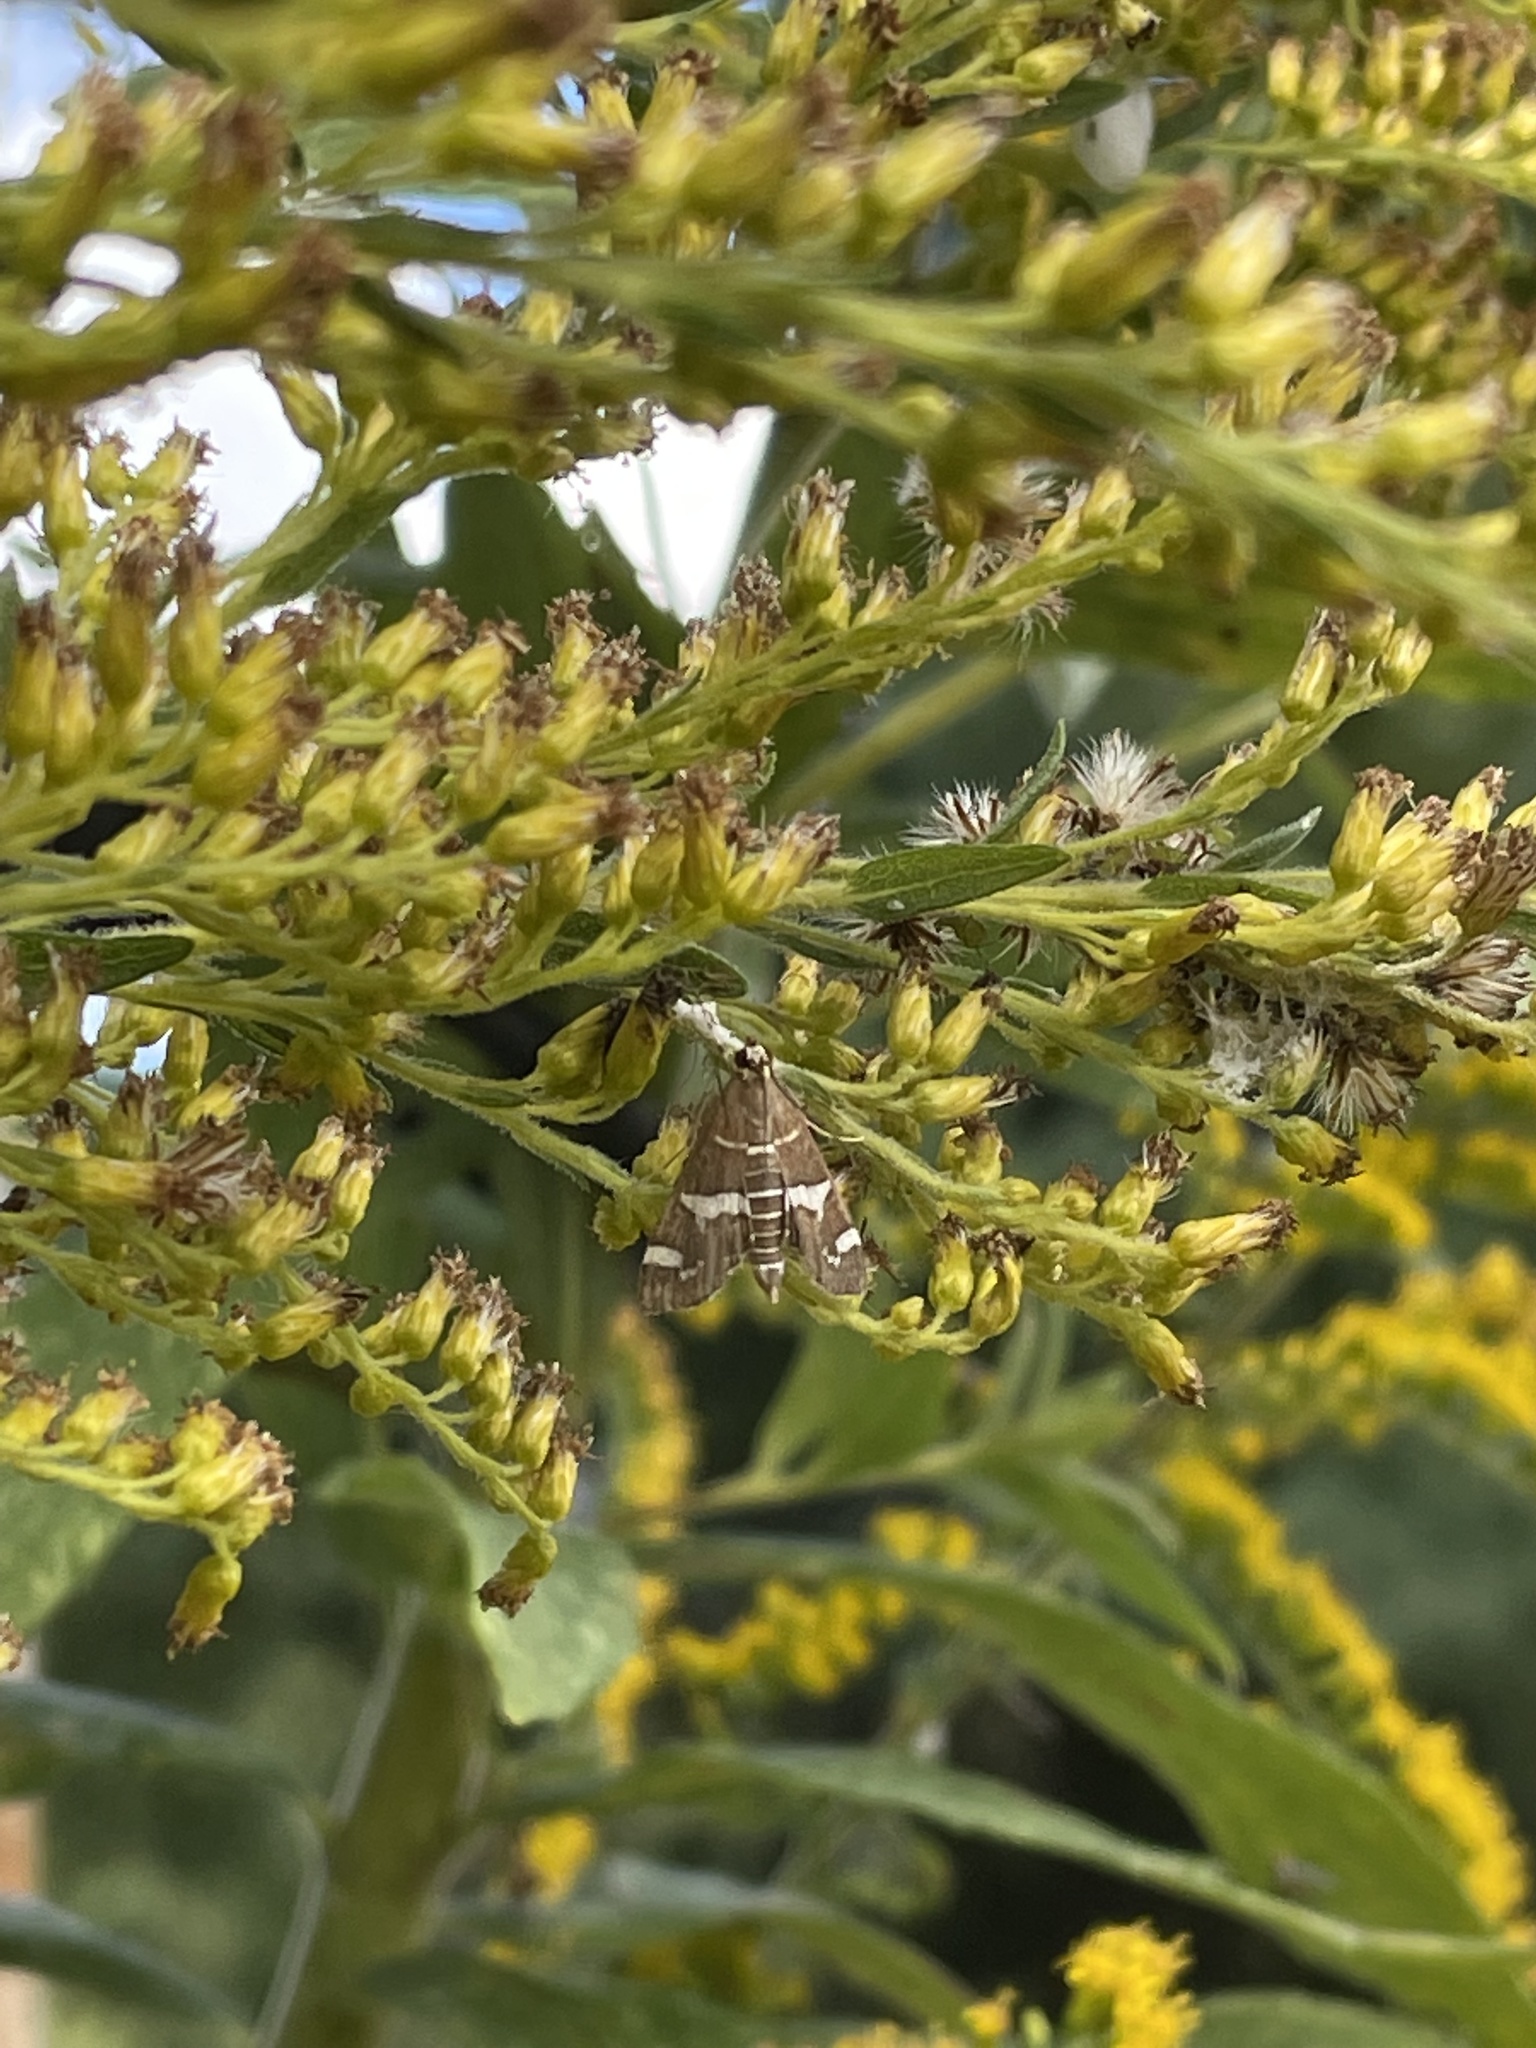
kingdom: Animalia
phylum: Arthropoda
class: Insecta
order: Lepidoptera
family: Crambidae
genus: Spoladea
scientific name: Spoladea recurvalis
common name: Beet webworm moth
